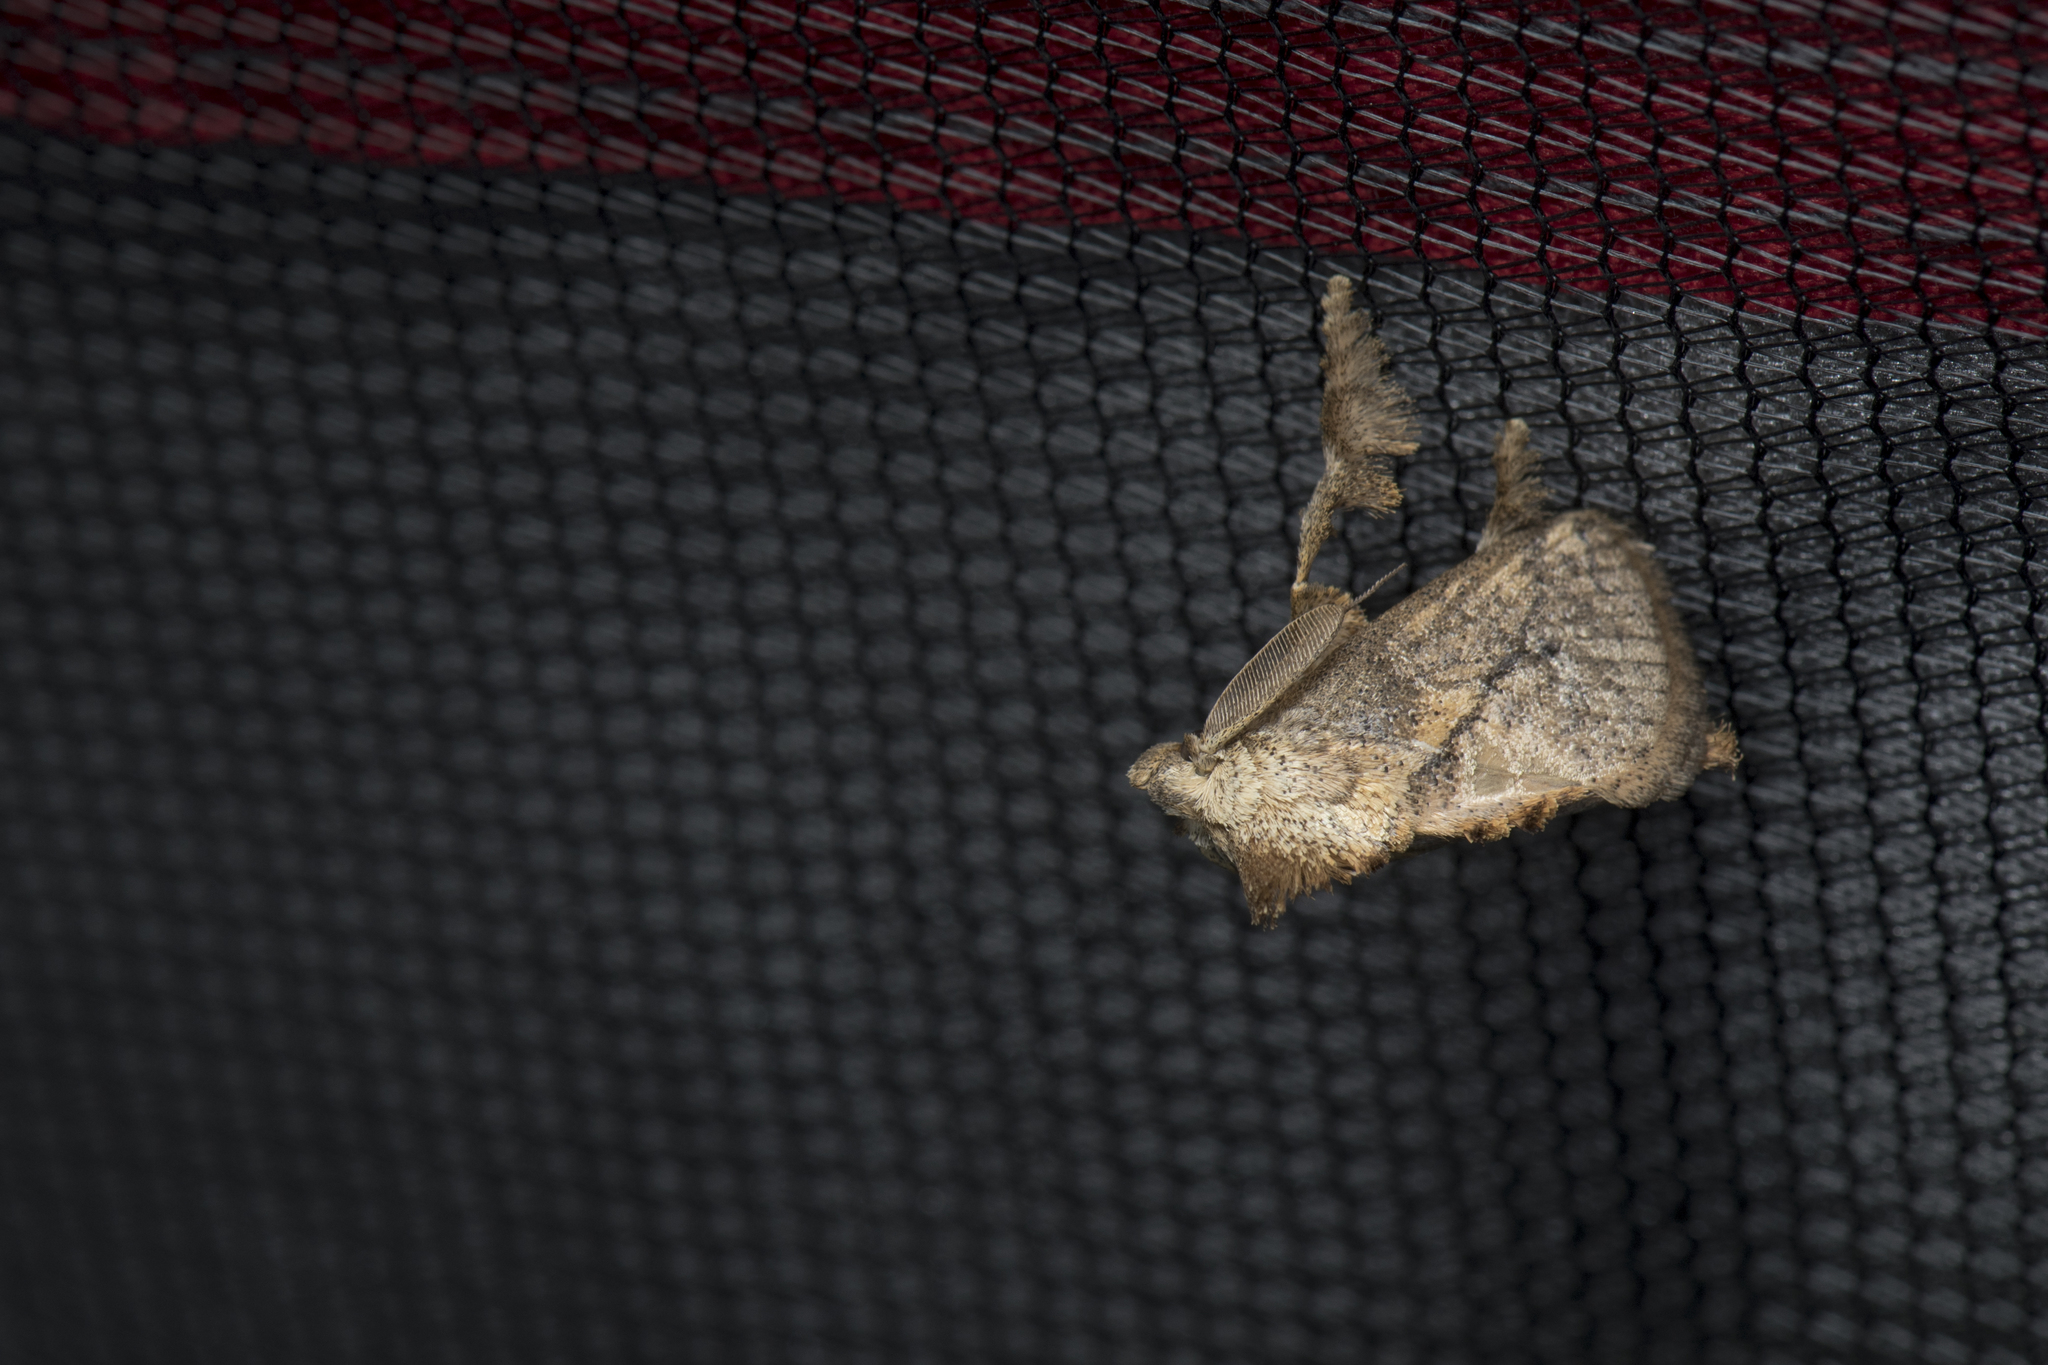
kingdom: Animalia
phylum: Arthropoda
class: Insecta
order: Lepidoptera
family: Limacodidae
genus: Susica
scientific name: Susica sinensis
